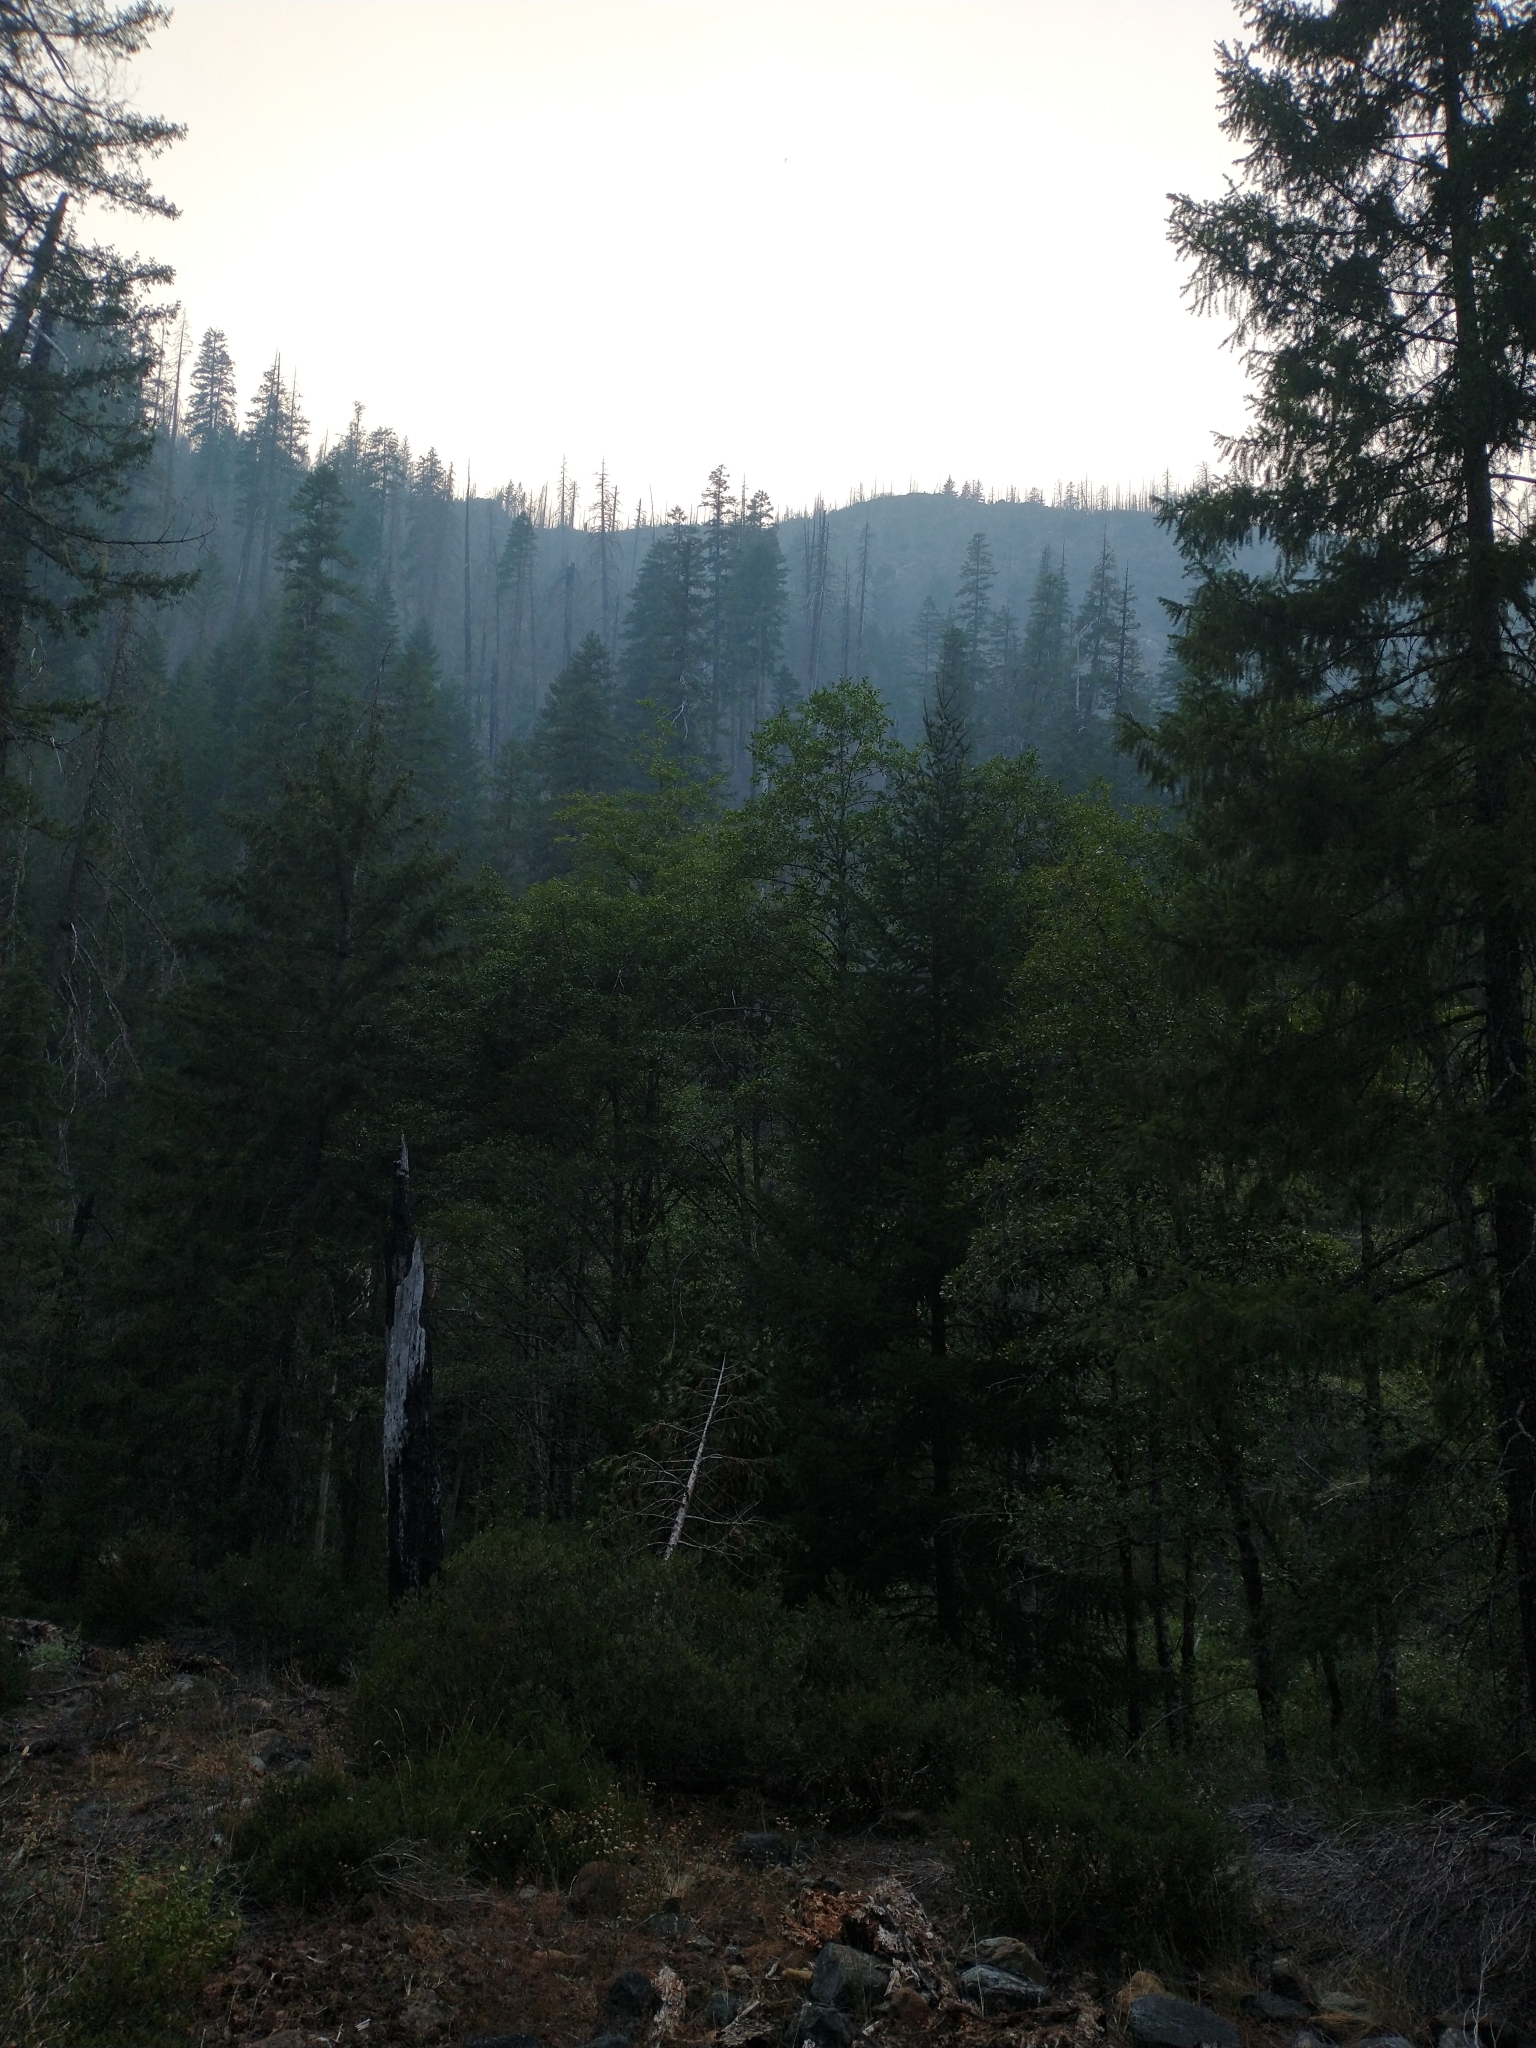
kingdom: Plantae
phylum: Tracheophyta
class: Pinopsida
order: Pinales
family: Pinaceae
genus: Pseudotsuga
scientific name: Pseudotsuga menziesii
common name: Douglas fir
